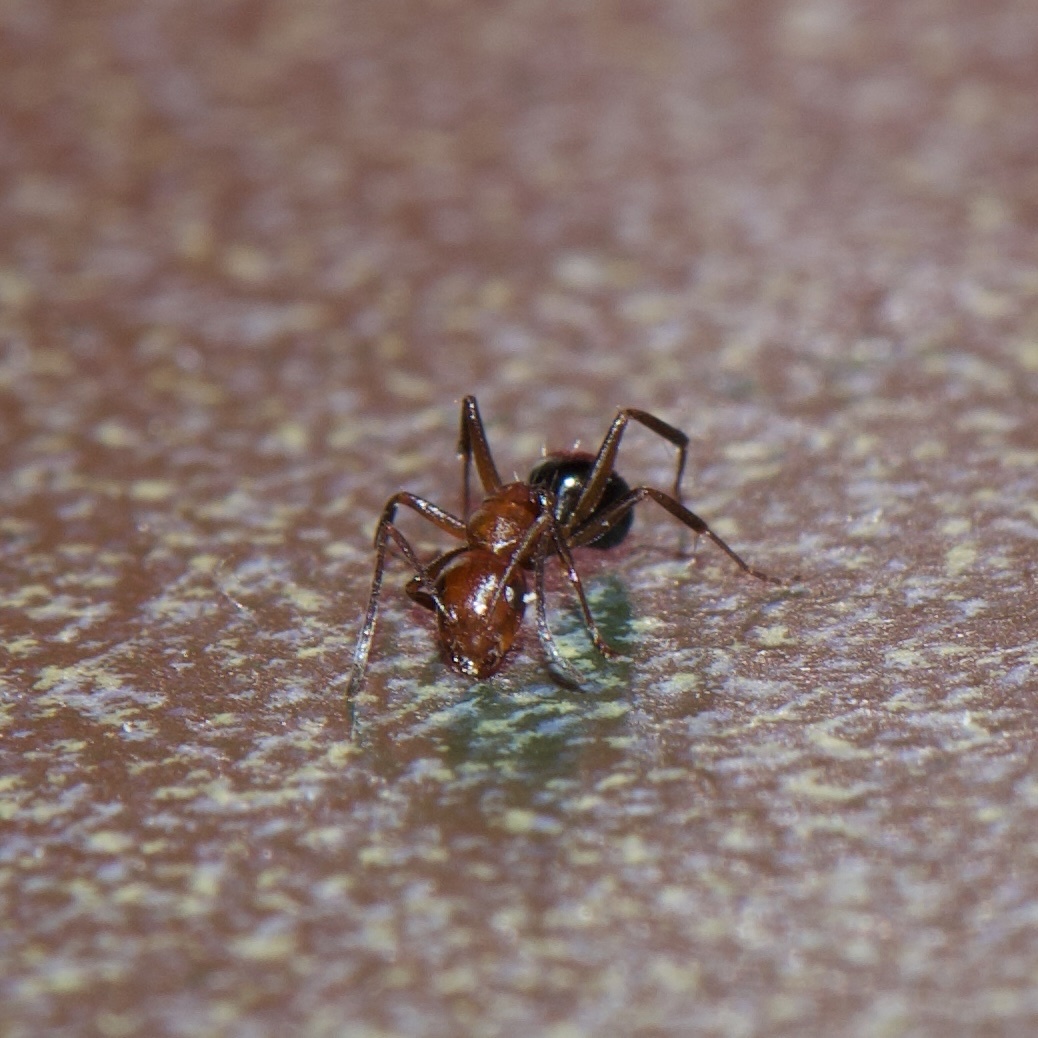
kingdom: Animalia
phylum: Arthropoda
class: Insecta
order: Hymenoptera
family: Formicidae
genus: Camponotus
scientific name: Camponotus discolor
